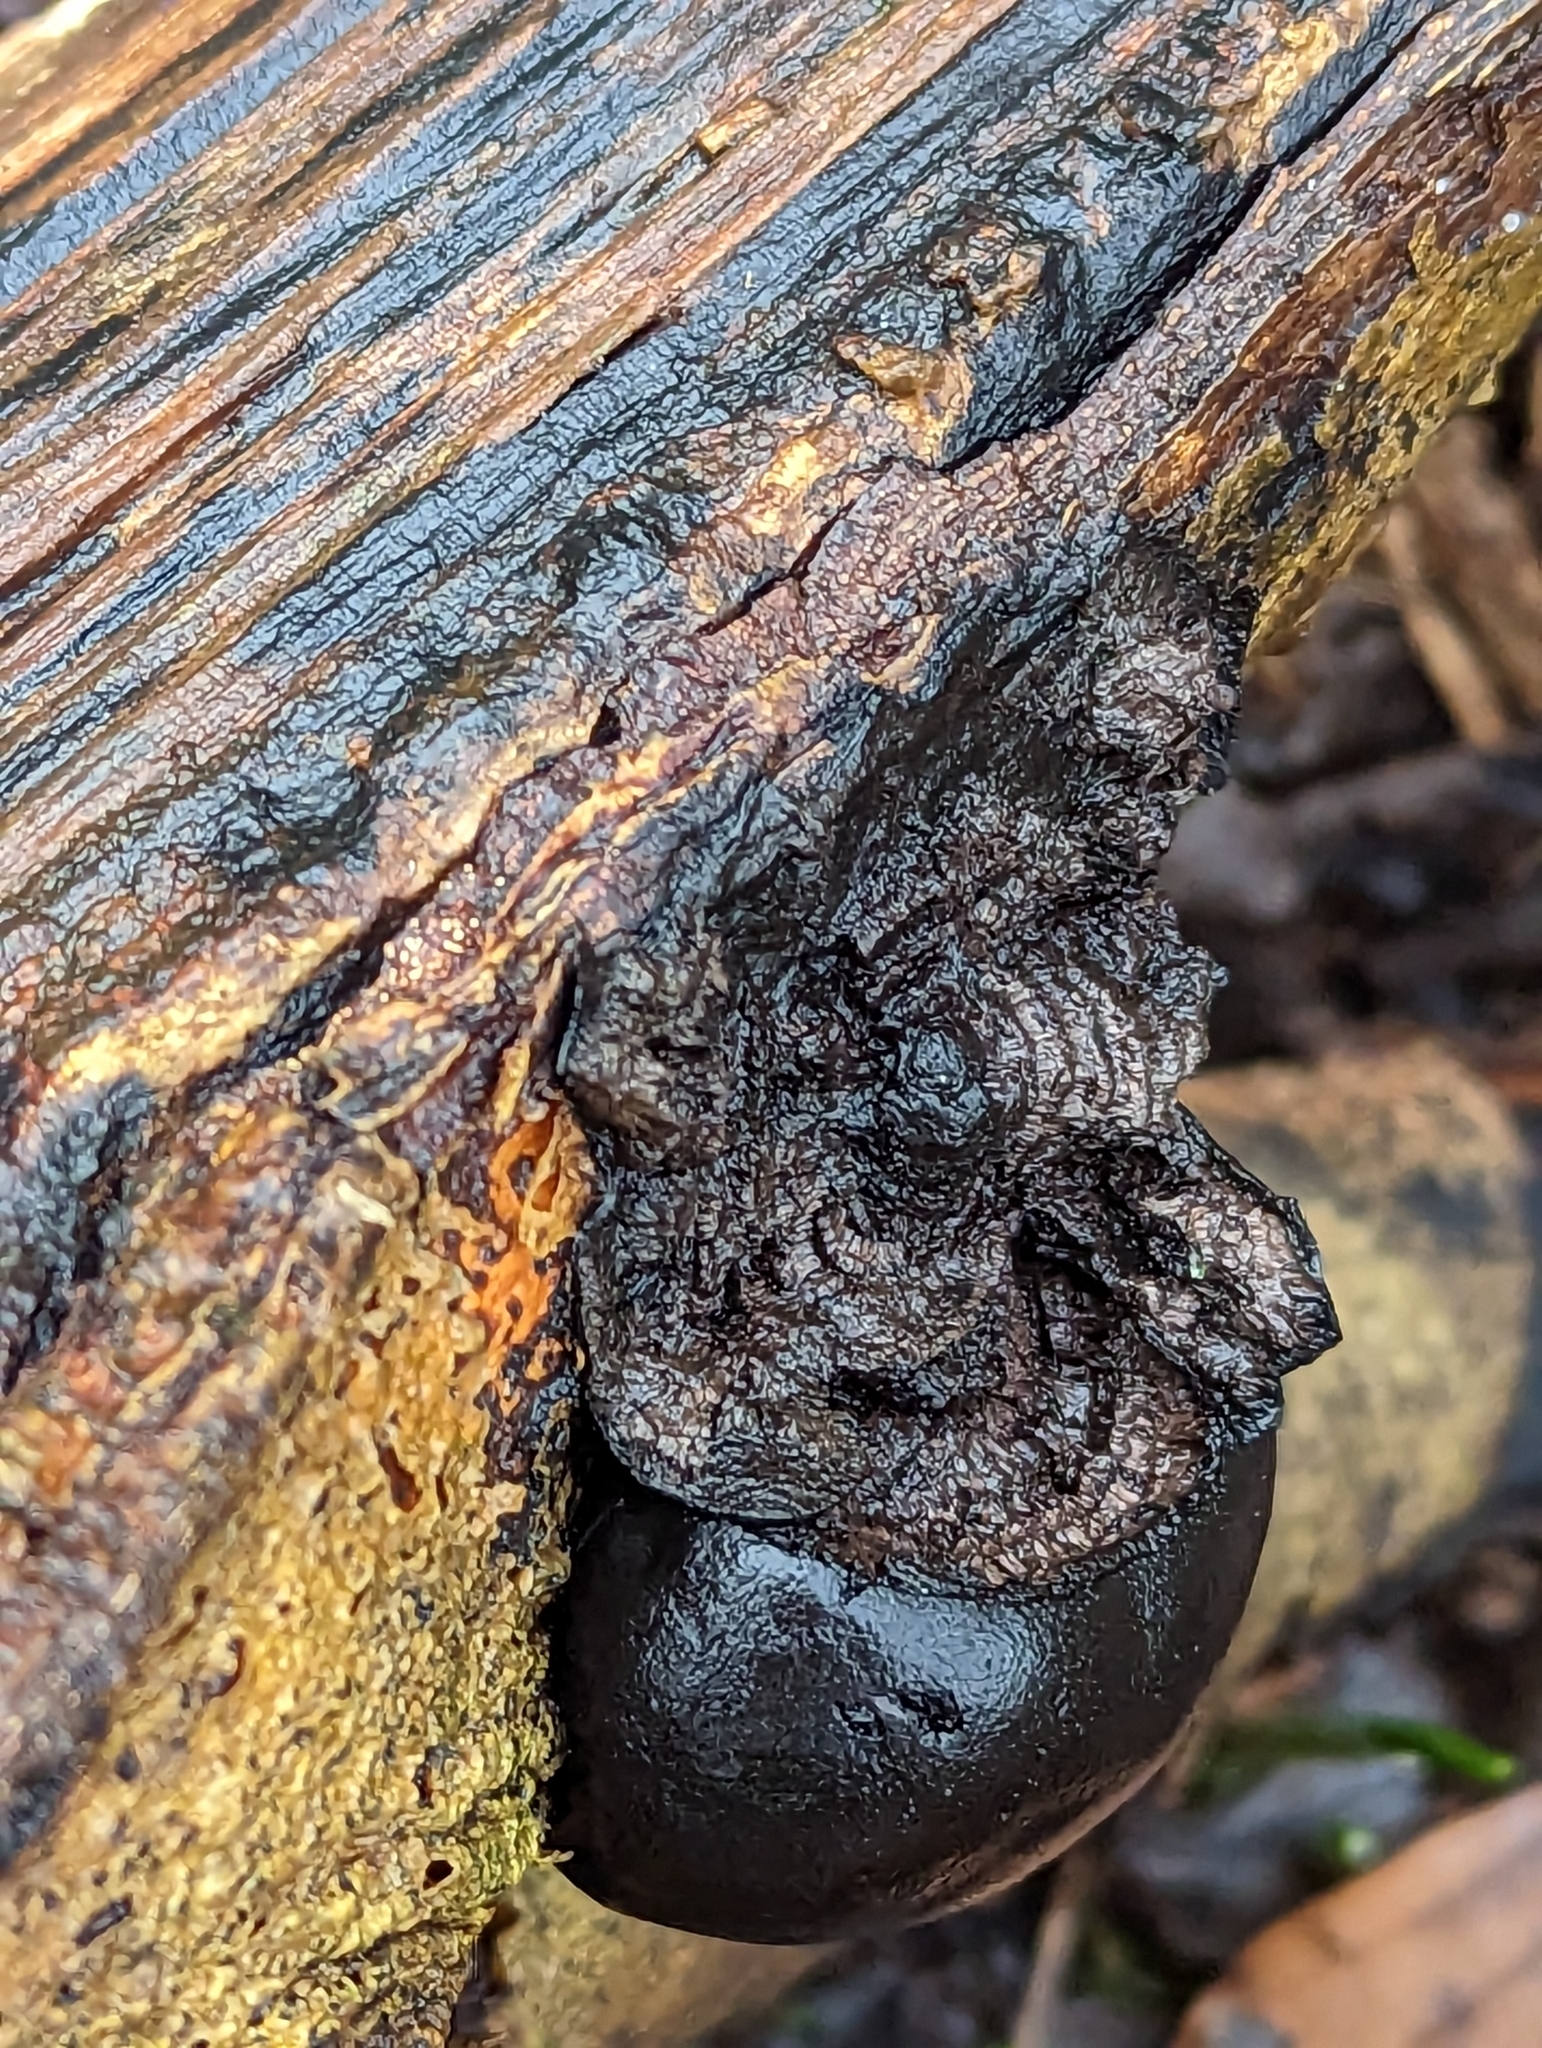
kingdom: Fungi
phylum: Ascomycota
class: Sordariomycetes
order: Xylariales
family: Hypoxylaceae
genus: Daldinia
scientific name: Daldinia concentrica
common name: Cramp balls
